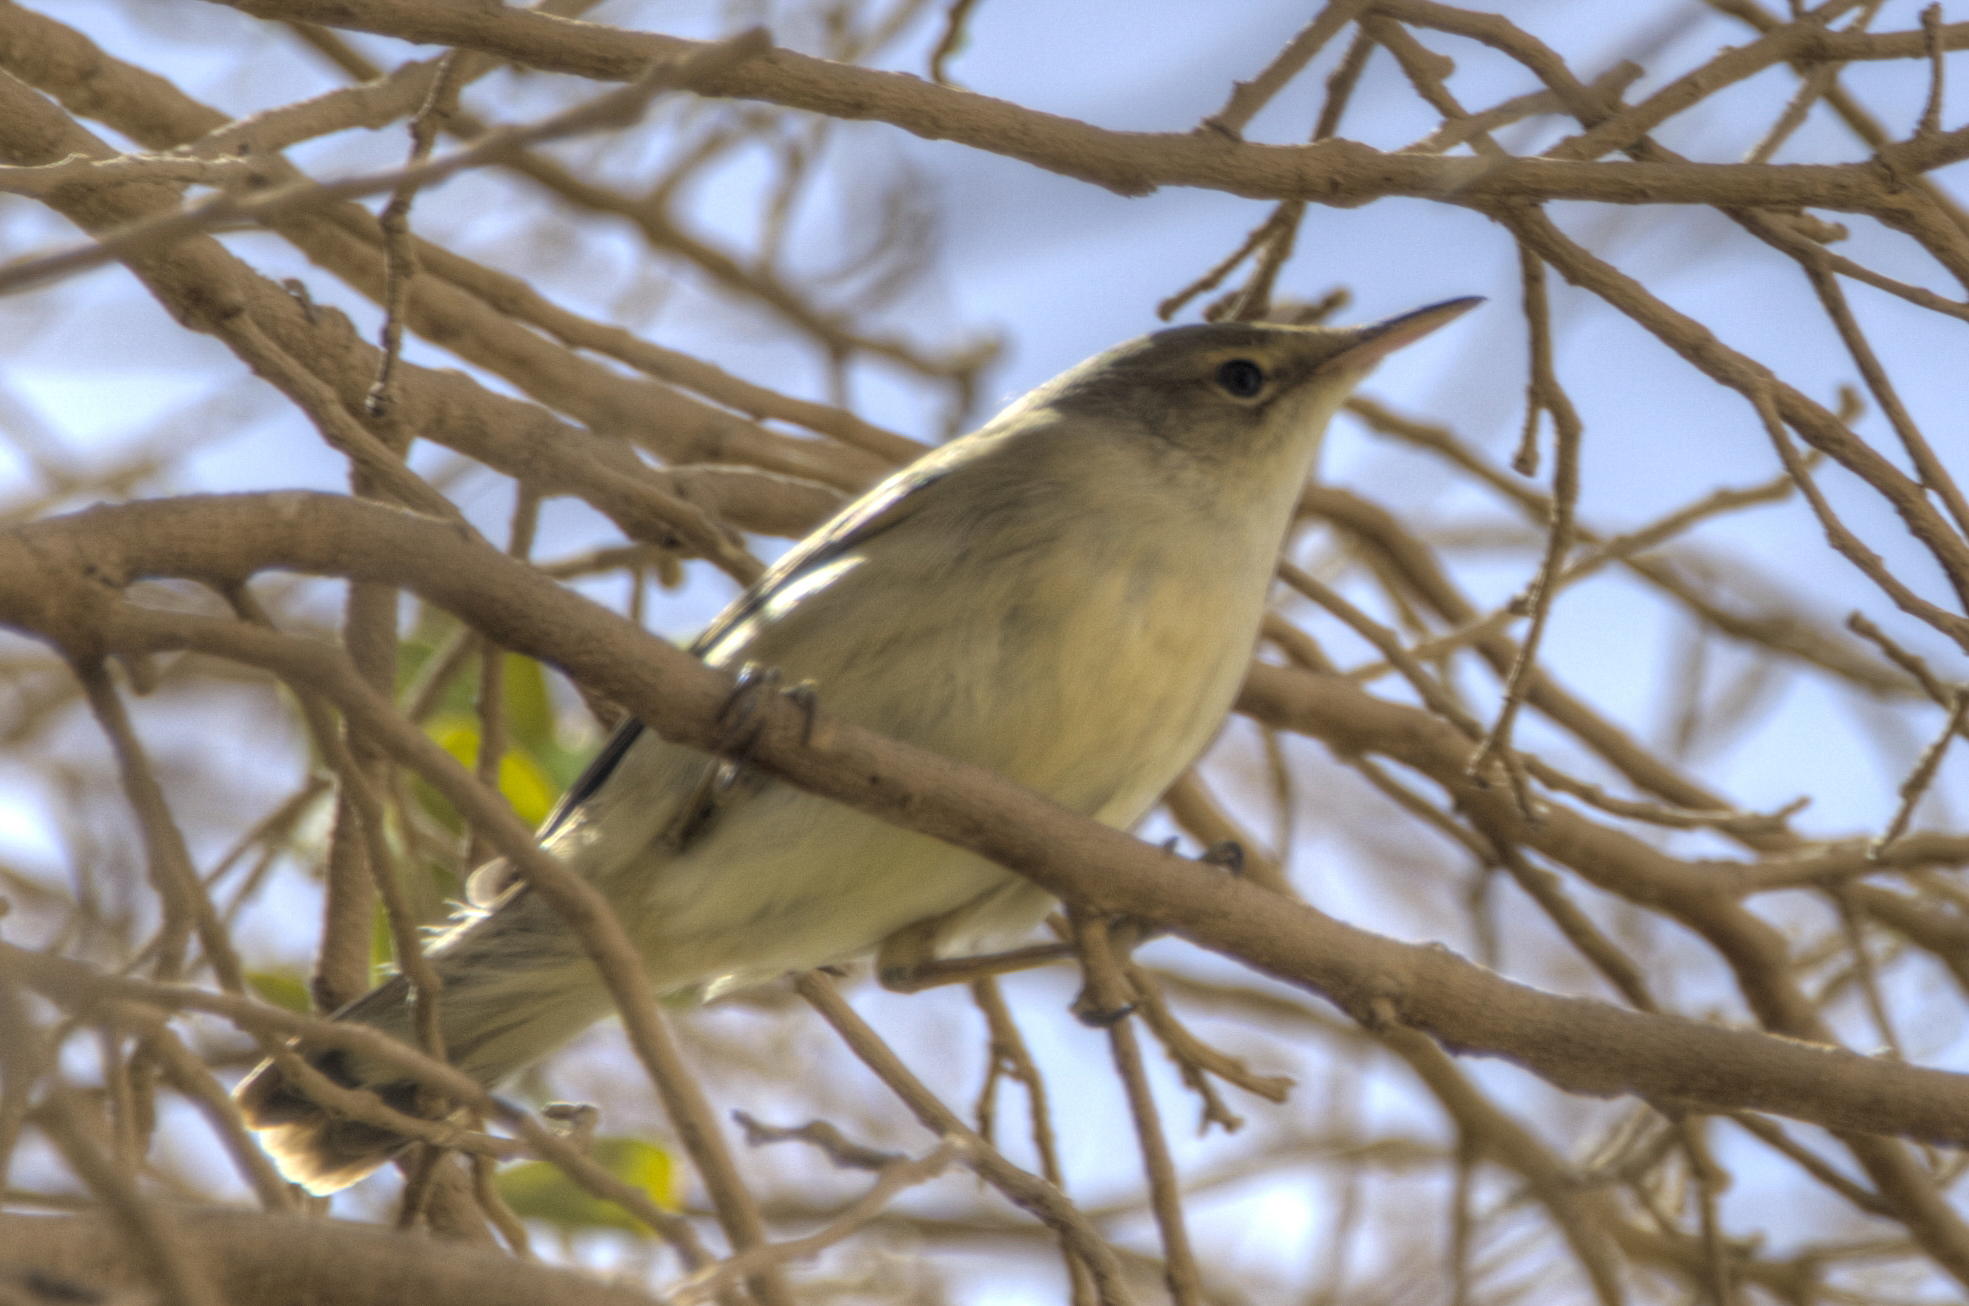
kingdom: Animalia
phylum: Chordata
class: Aves
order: Passeriformes
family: Acrocephalidae
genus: Acrocephalus
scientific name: Acrocephalus stentoreus
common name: Clamorous reed warbler
